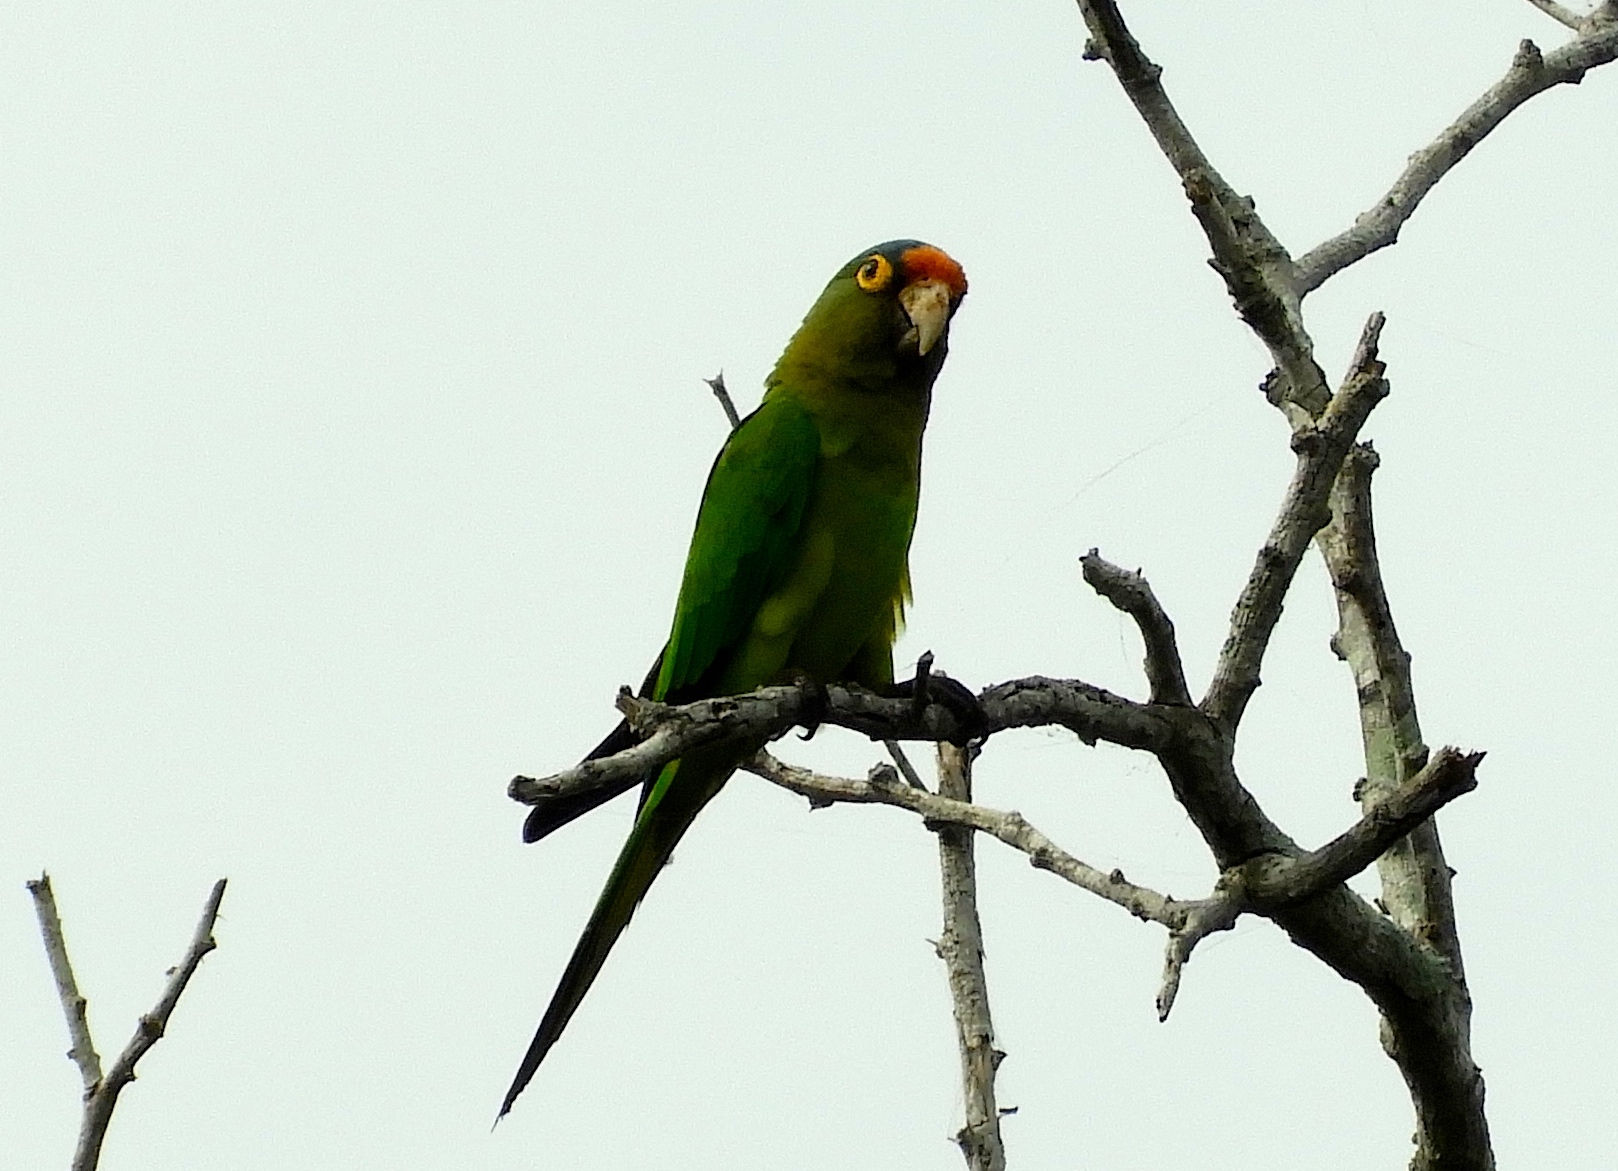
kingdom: Animalia
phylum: Chordata
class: Aves
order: Psittaciformes
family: Psittacidae
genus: Aratinga
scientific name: Aratinga canicularis
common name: Orange-fronted parakeet
